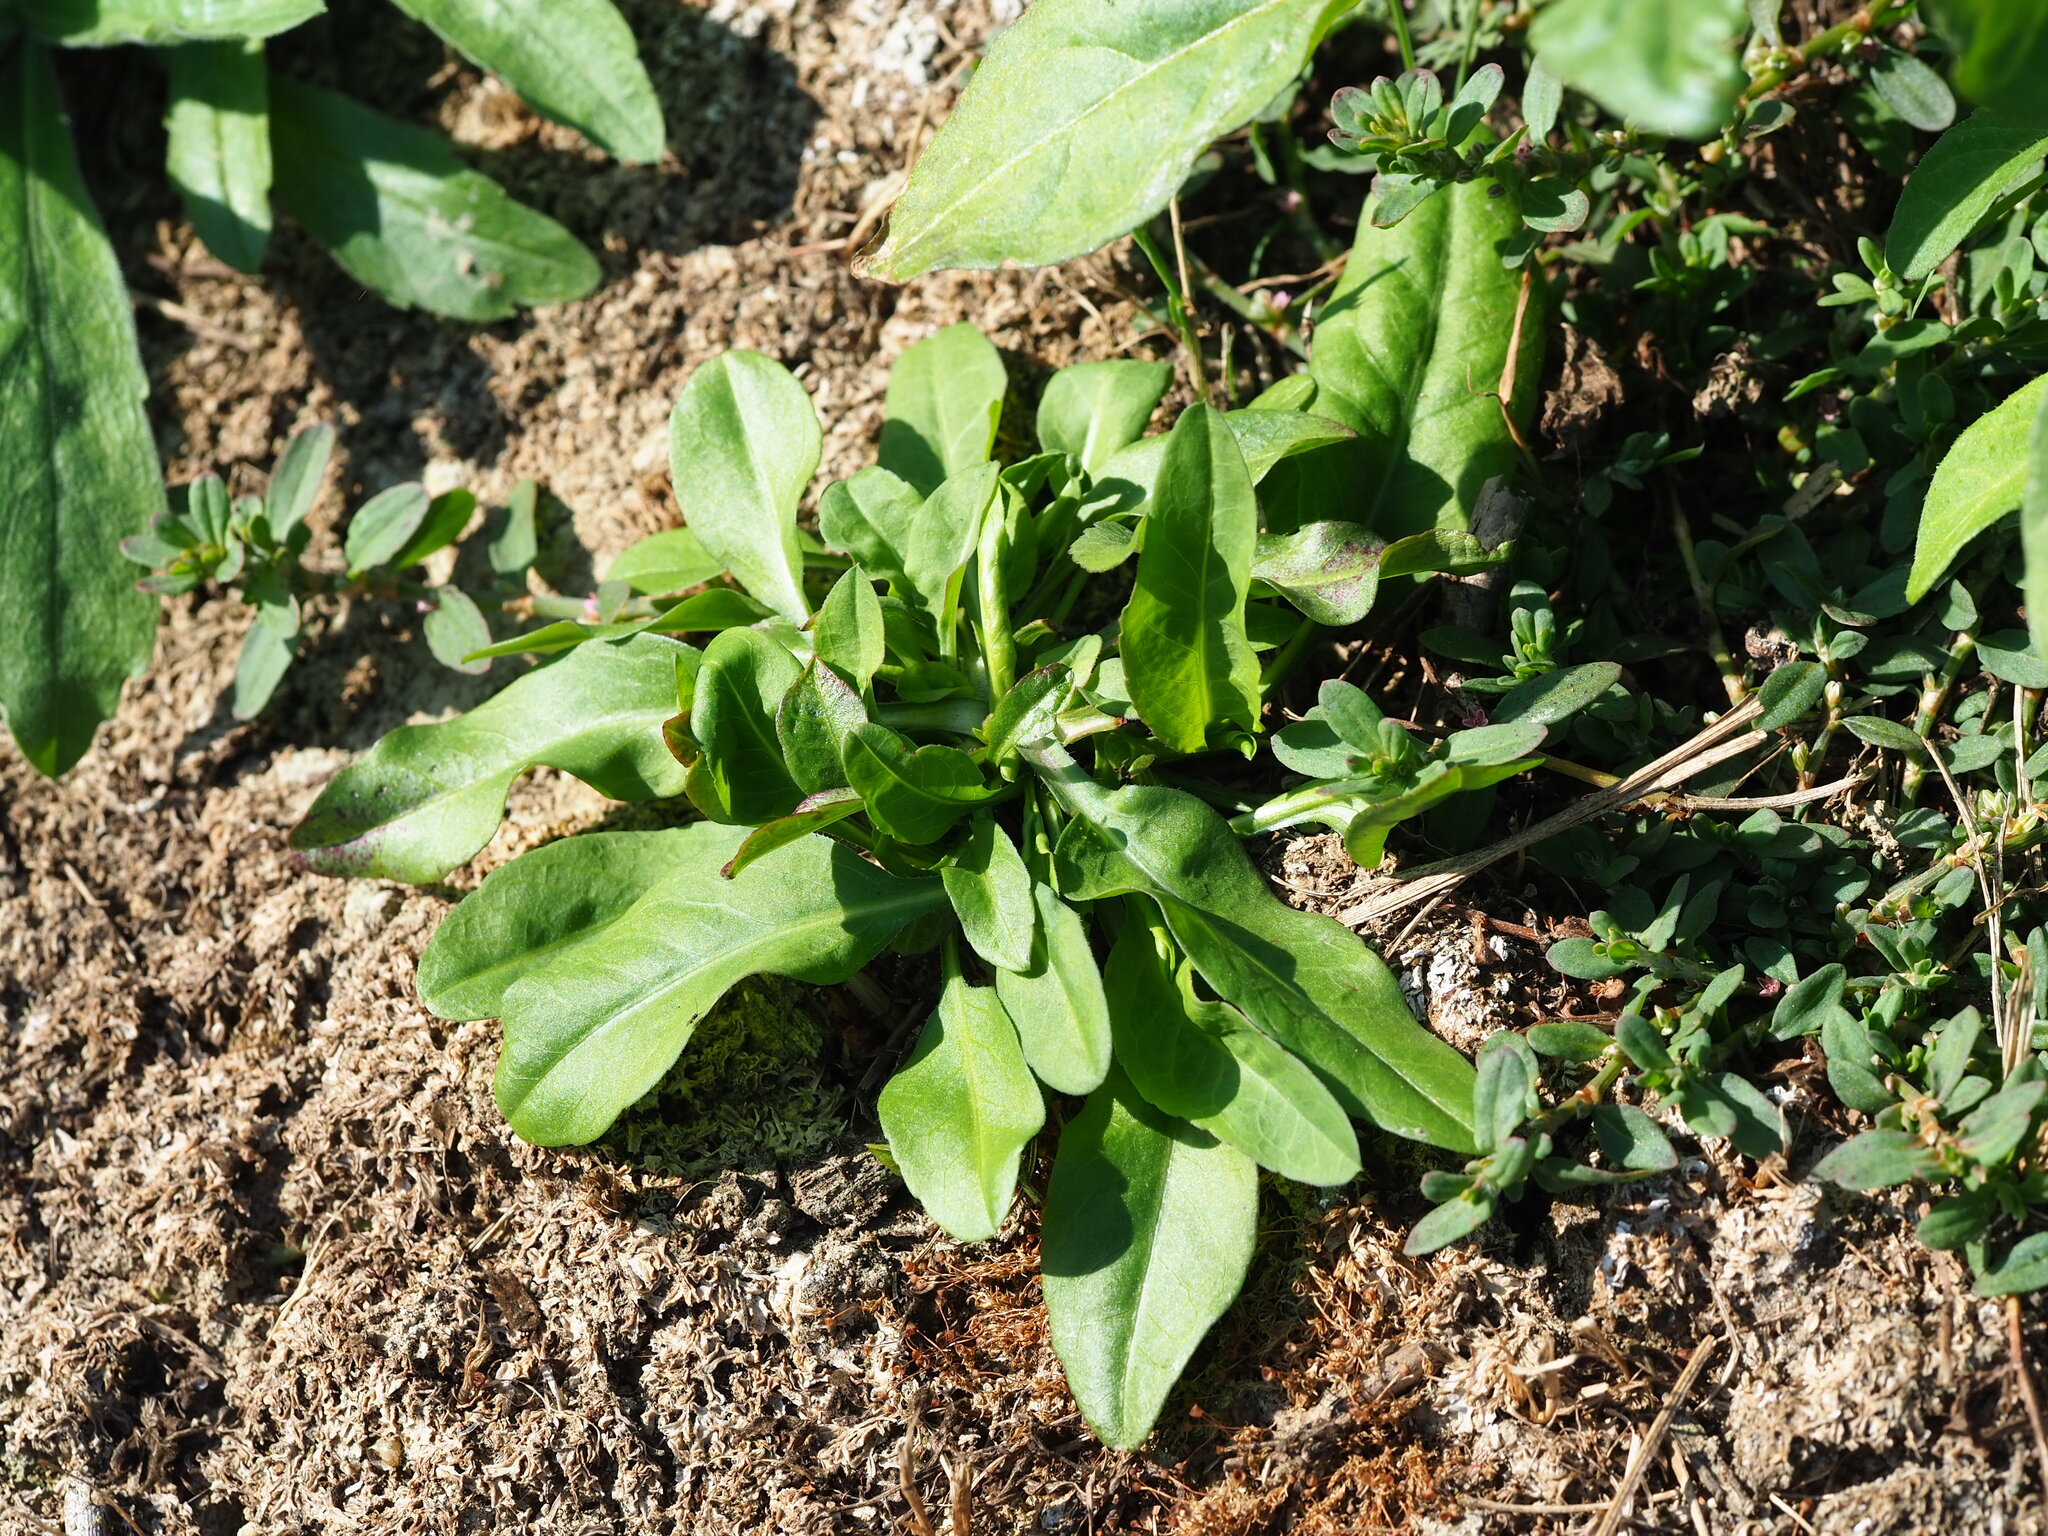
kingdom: Plantae
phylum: Tracheophyta
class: Magnoliopsida
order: Asterales
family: Asteraceae
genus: Symphyotrichum
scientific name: Symphyotrichum subulatum
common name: Annual saltmarsh aster
